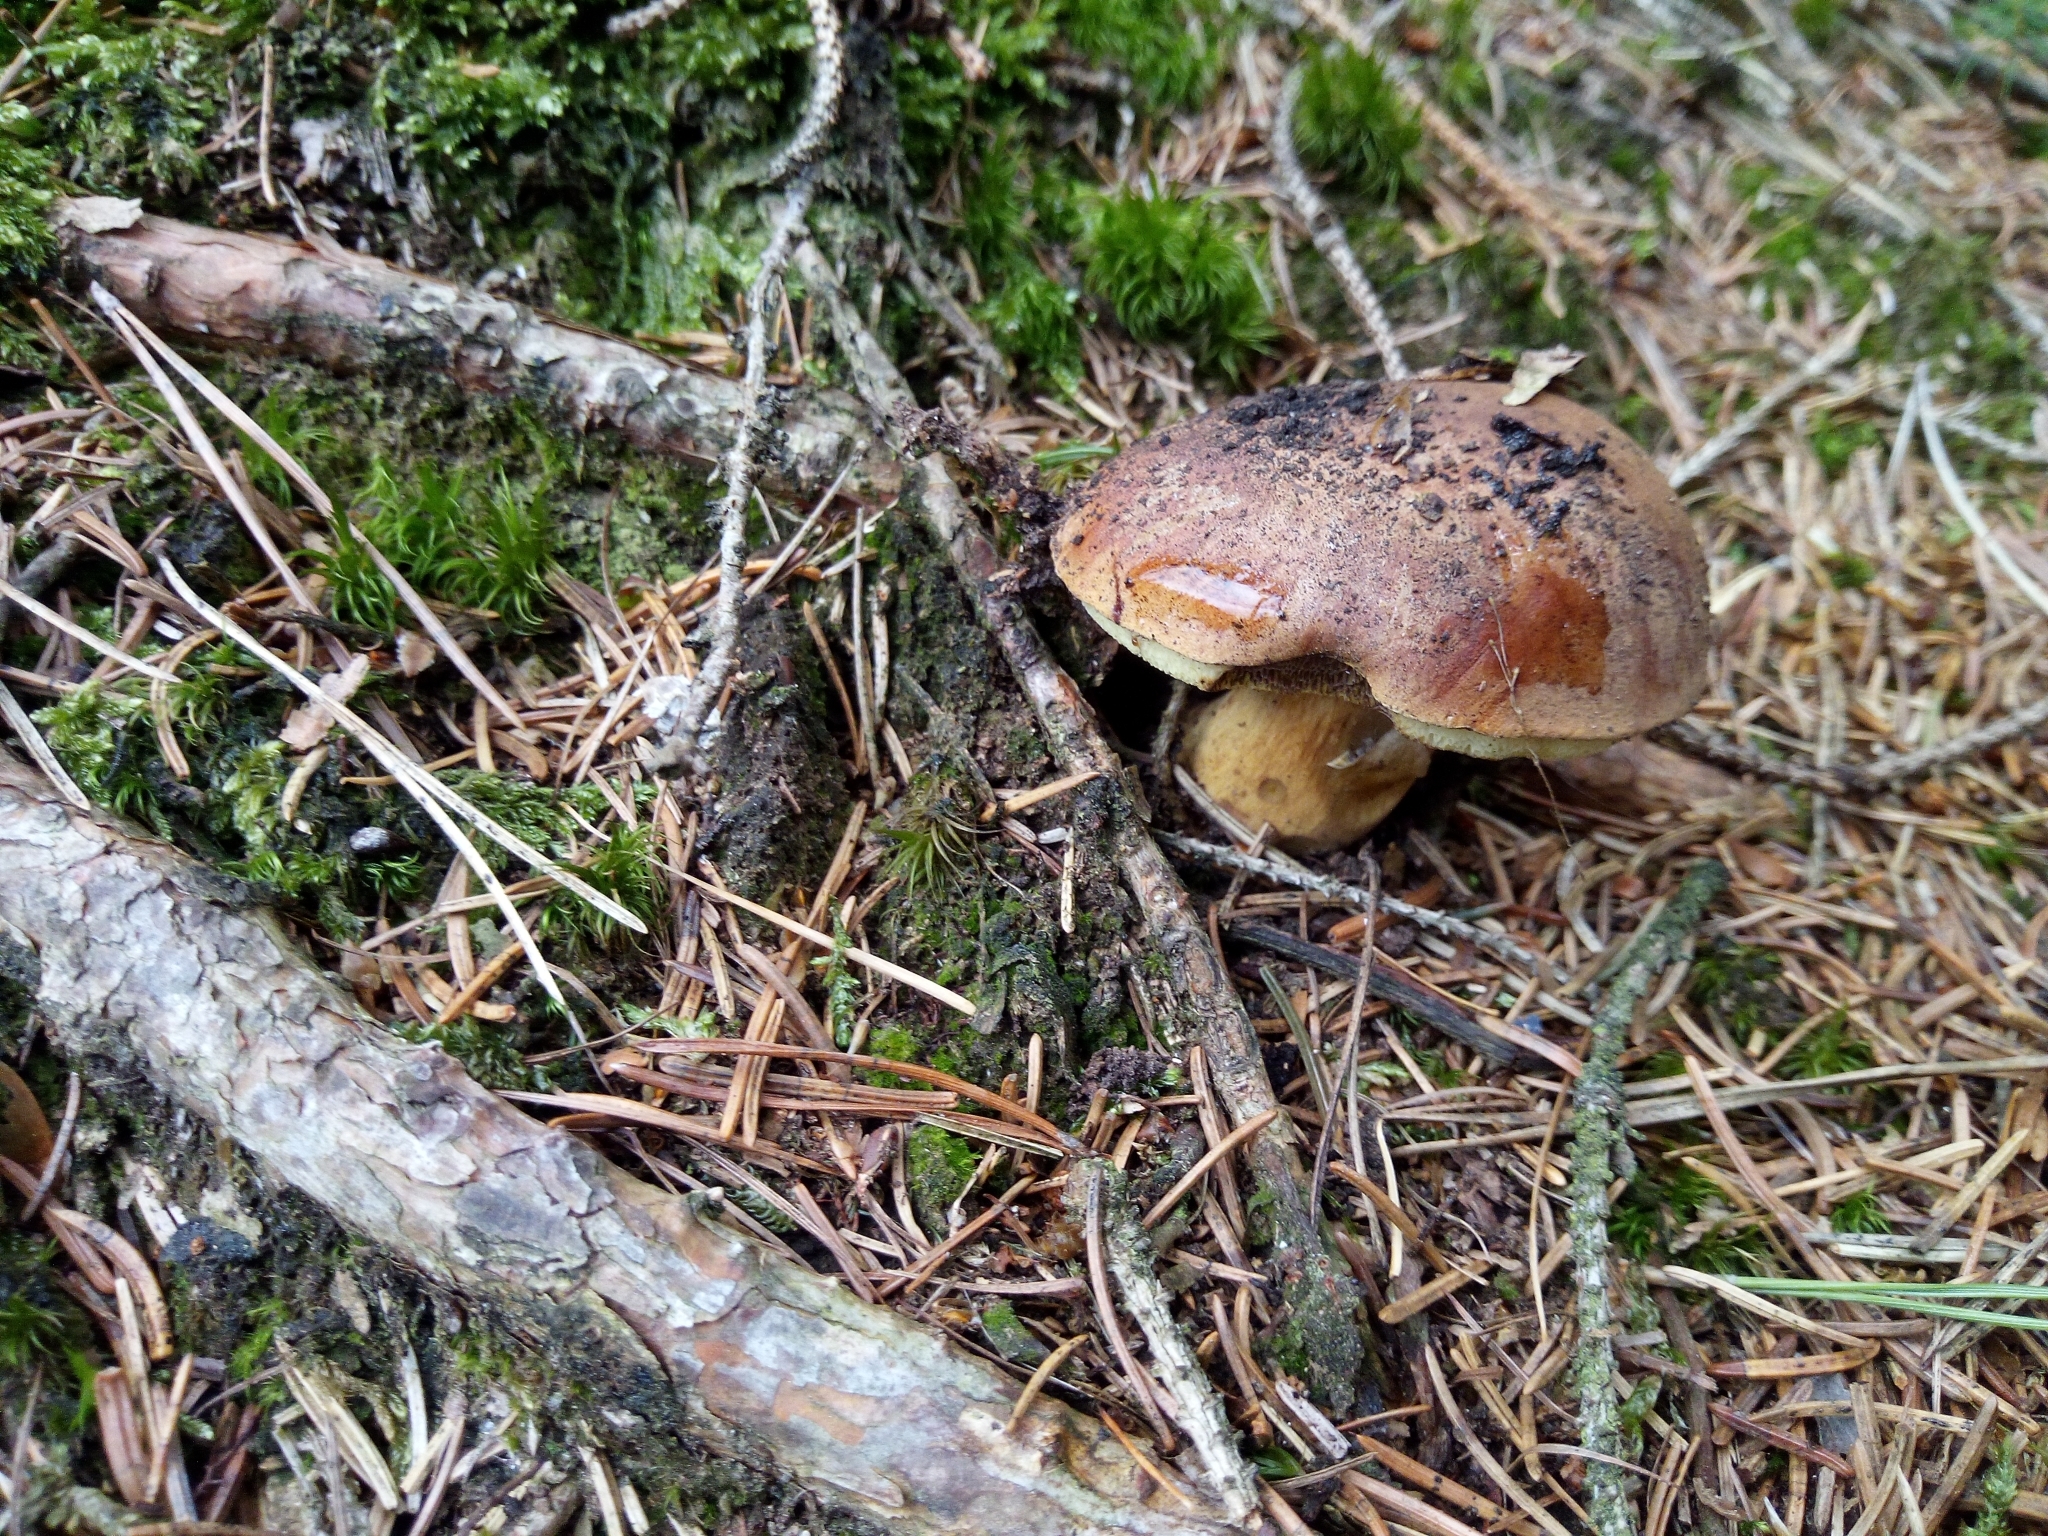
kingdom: Fungi
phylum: Basidiomycota
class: Agaricomycetes
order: Boletales
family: Boletaceae
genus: Imleria
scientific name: Imleria badia
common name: Bay bolete
